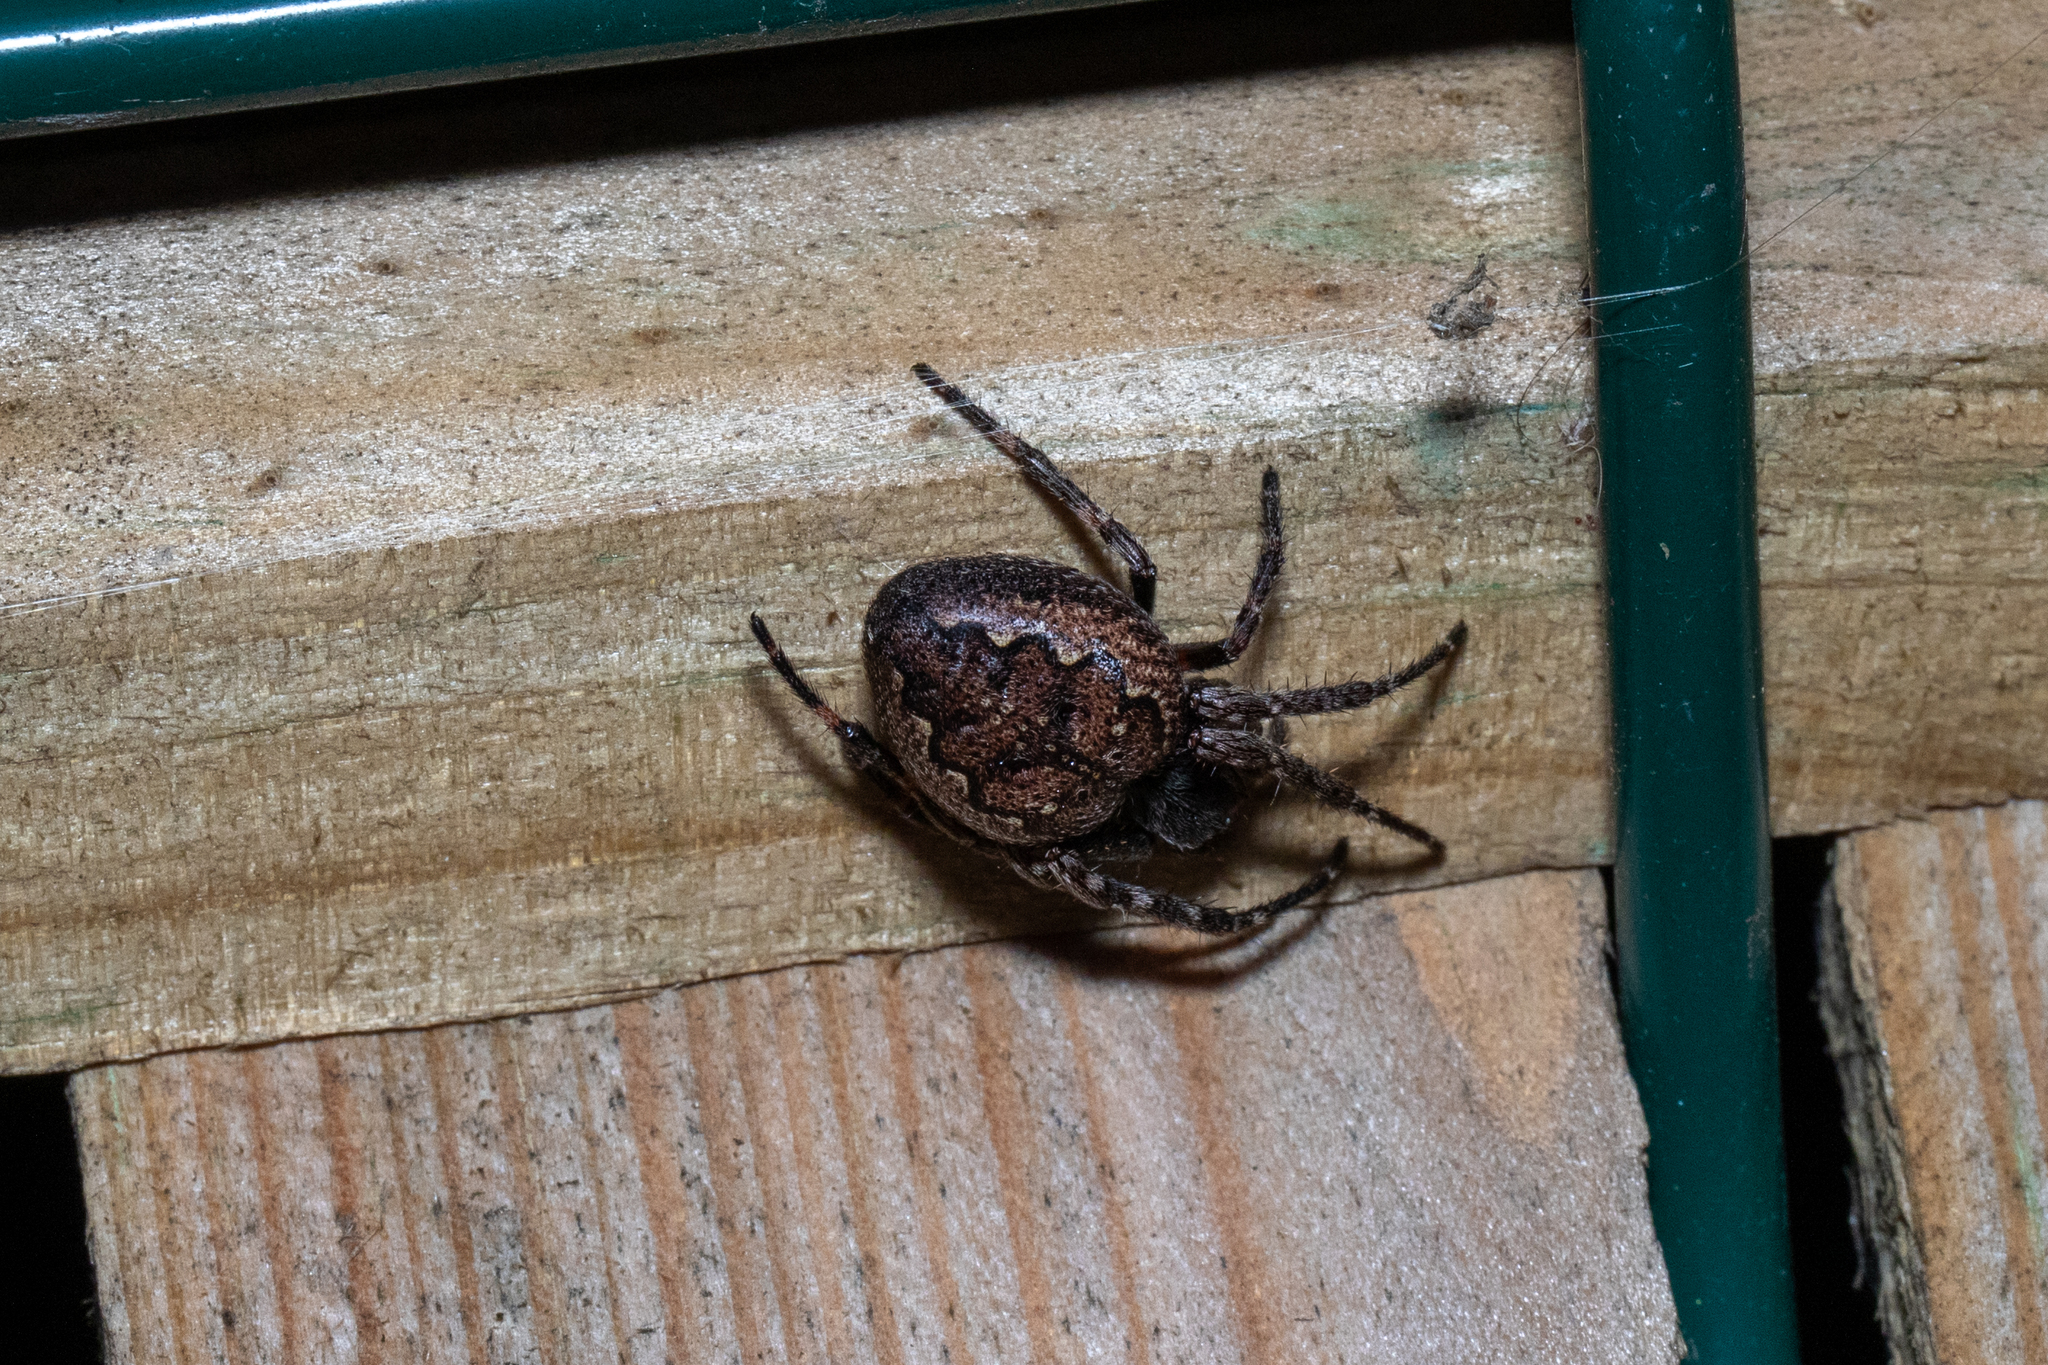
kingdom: Animalia
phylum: Arthropoda
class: Arachnida
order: Araneae
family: Araneidae
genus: Nuctenea
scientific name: Nuctenea umbratica
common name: Toad spider
